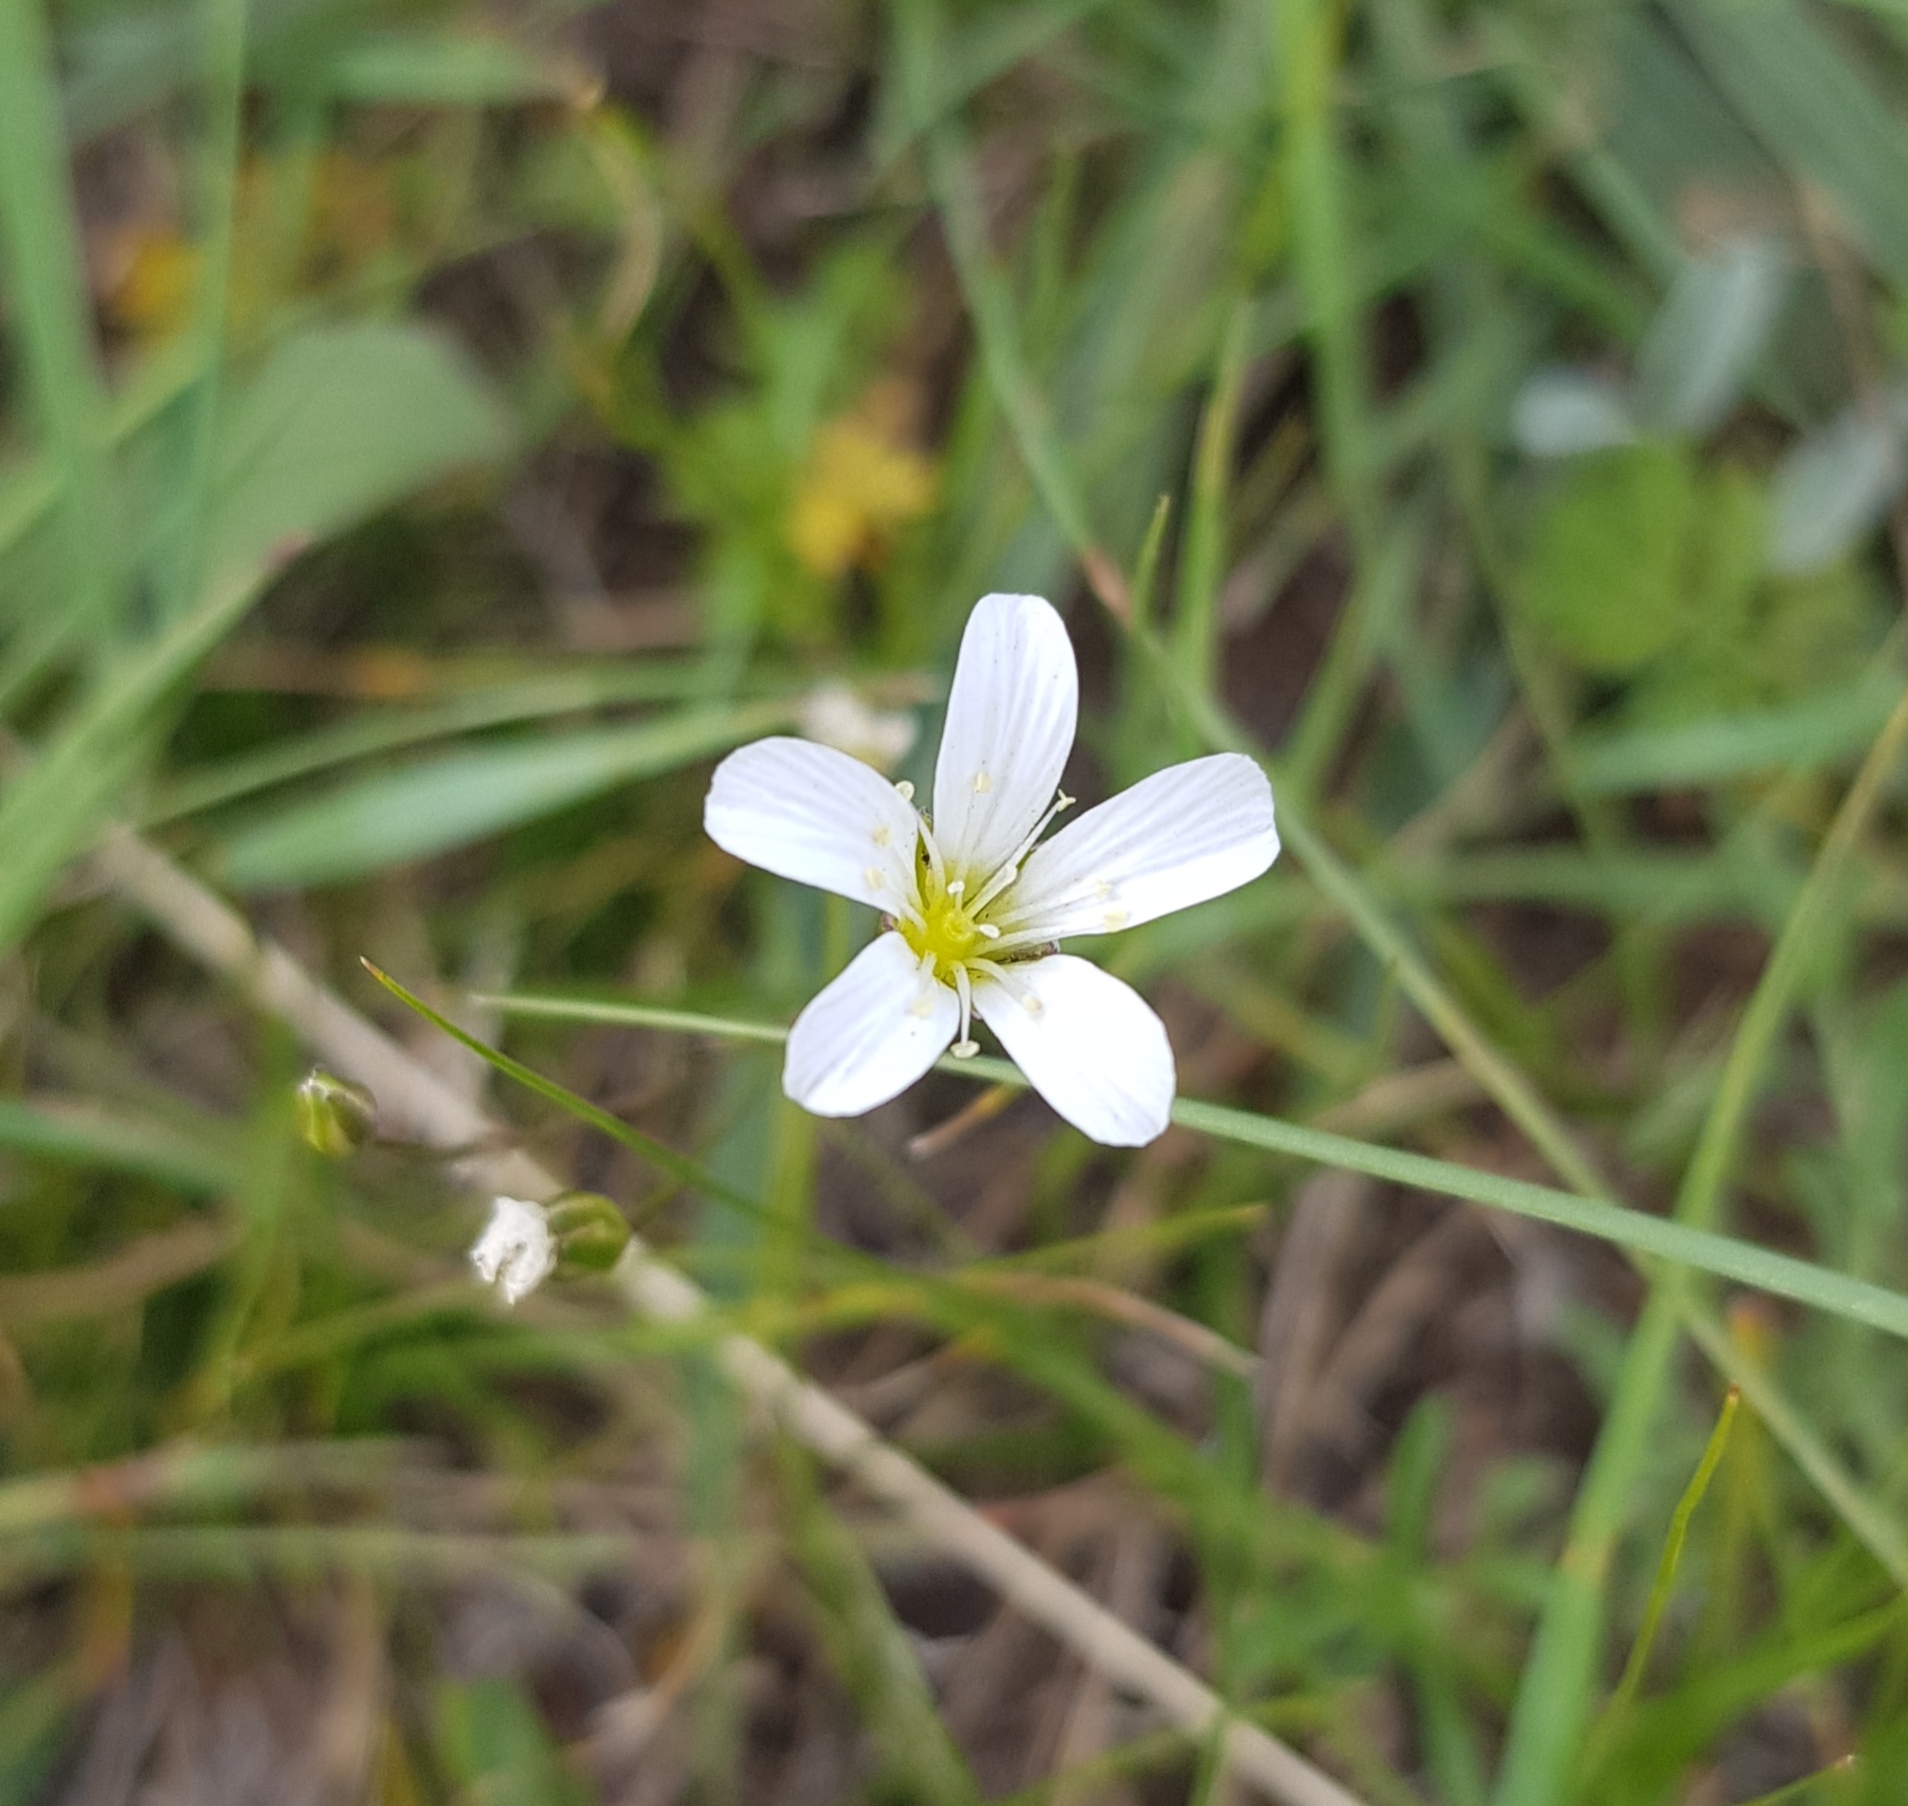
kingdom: Plantae
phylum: Tracheophyta
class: Magnoliopsida
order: Caryophyllales
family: Caryophyllaceae
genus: Eremogone
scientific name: Eremogone capillaris
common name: Slender mountain sandwort
